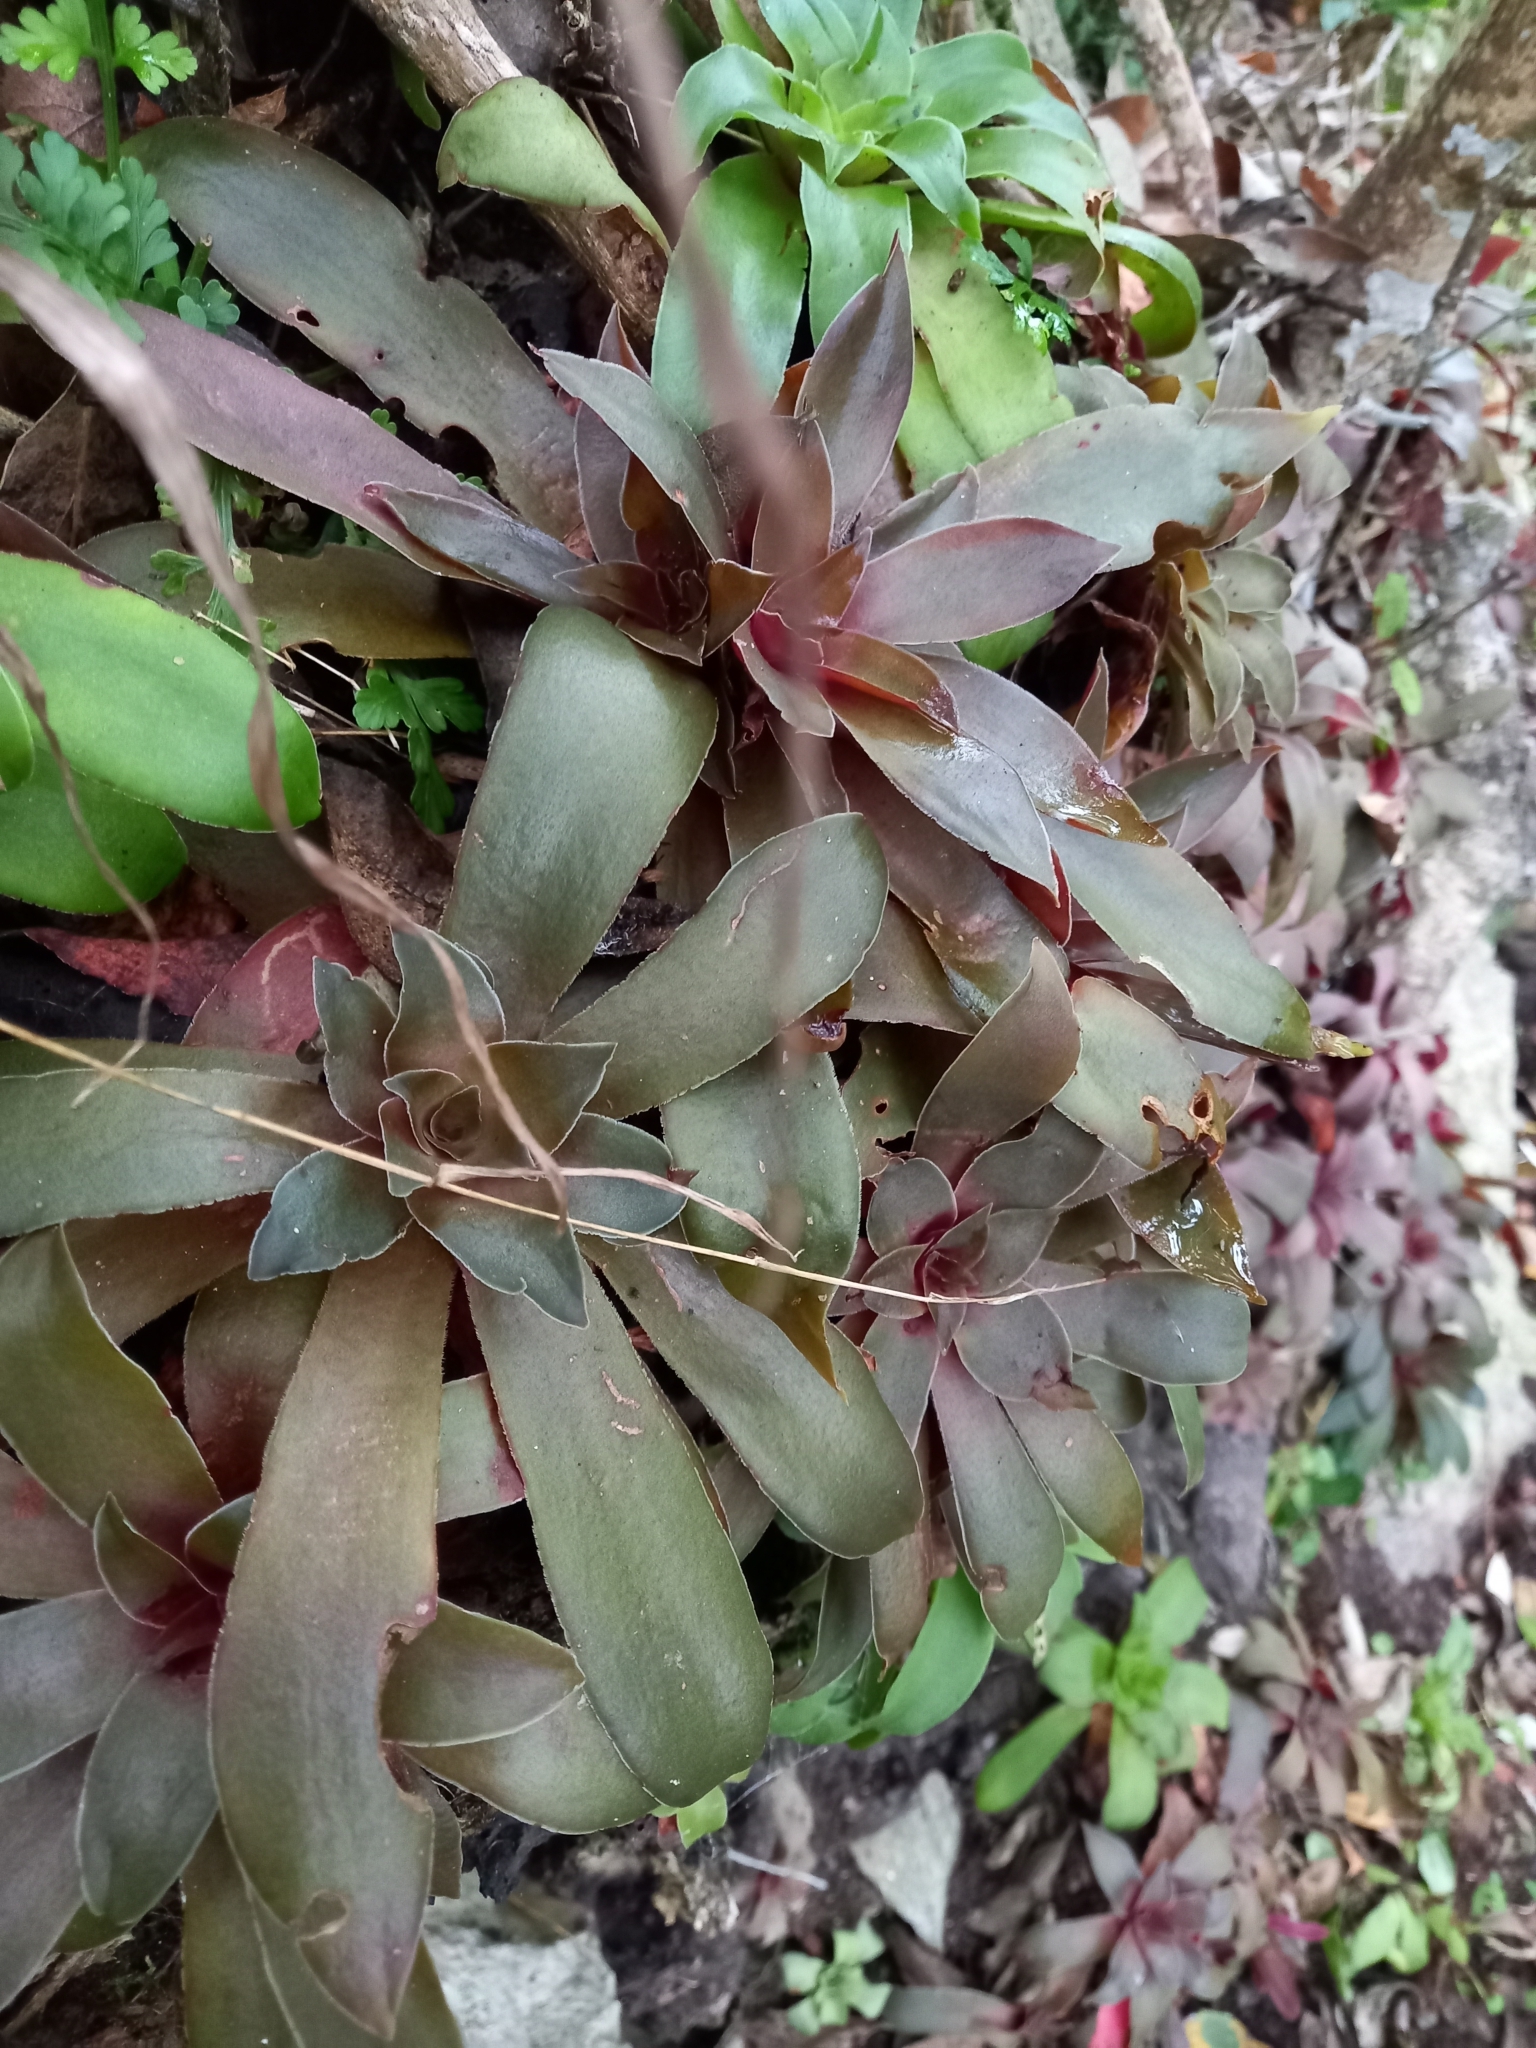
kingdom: Plantae
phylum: Tracheophyta
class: Magnoliopsida
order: Saxifragales
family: Crassulaceae
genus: Crassula
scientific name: Crassula orbicularis
